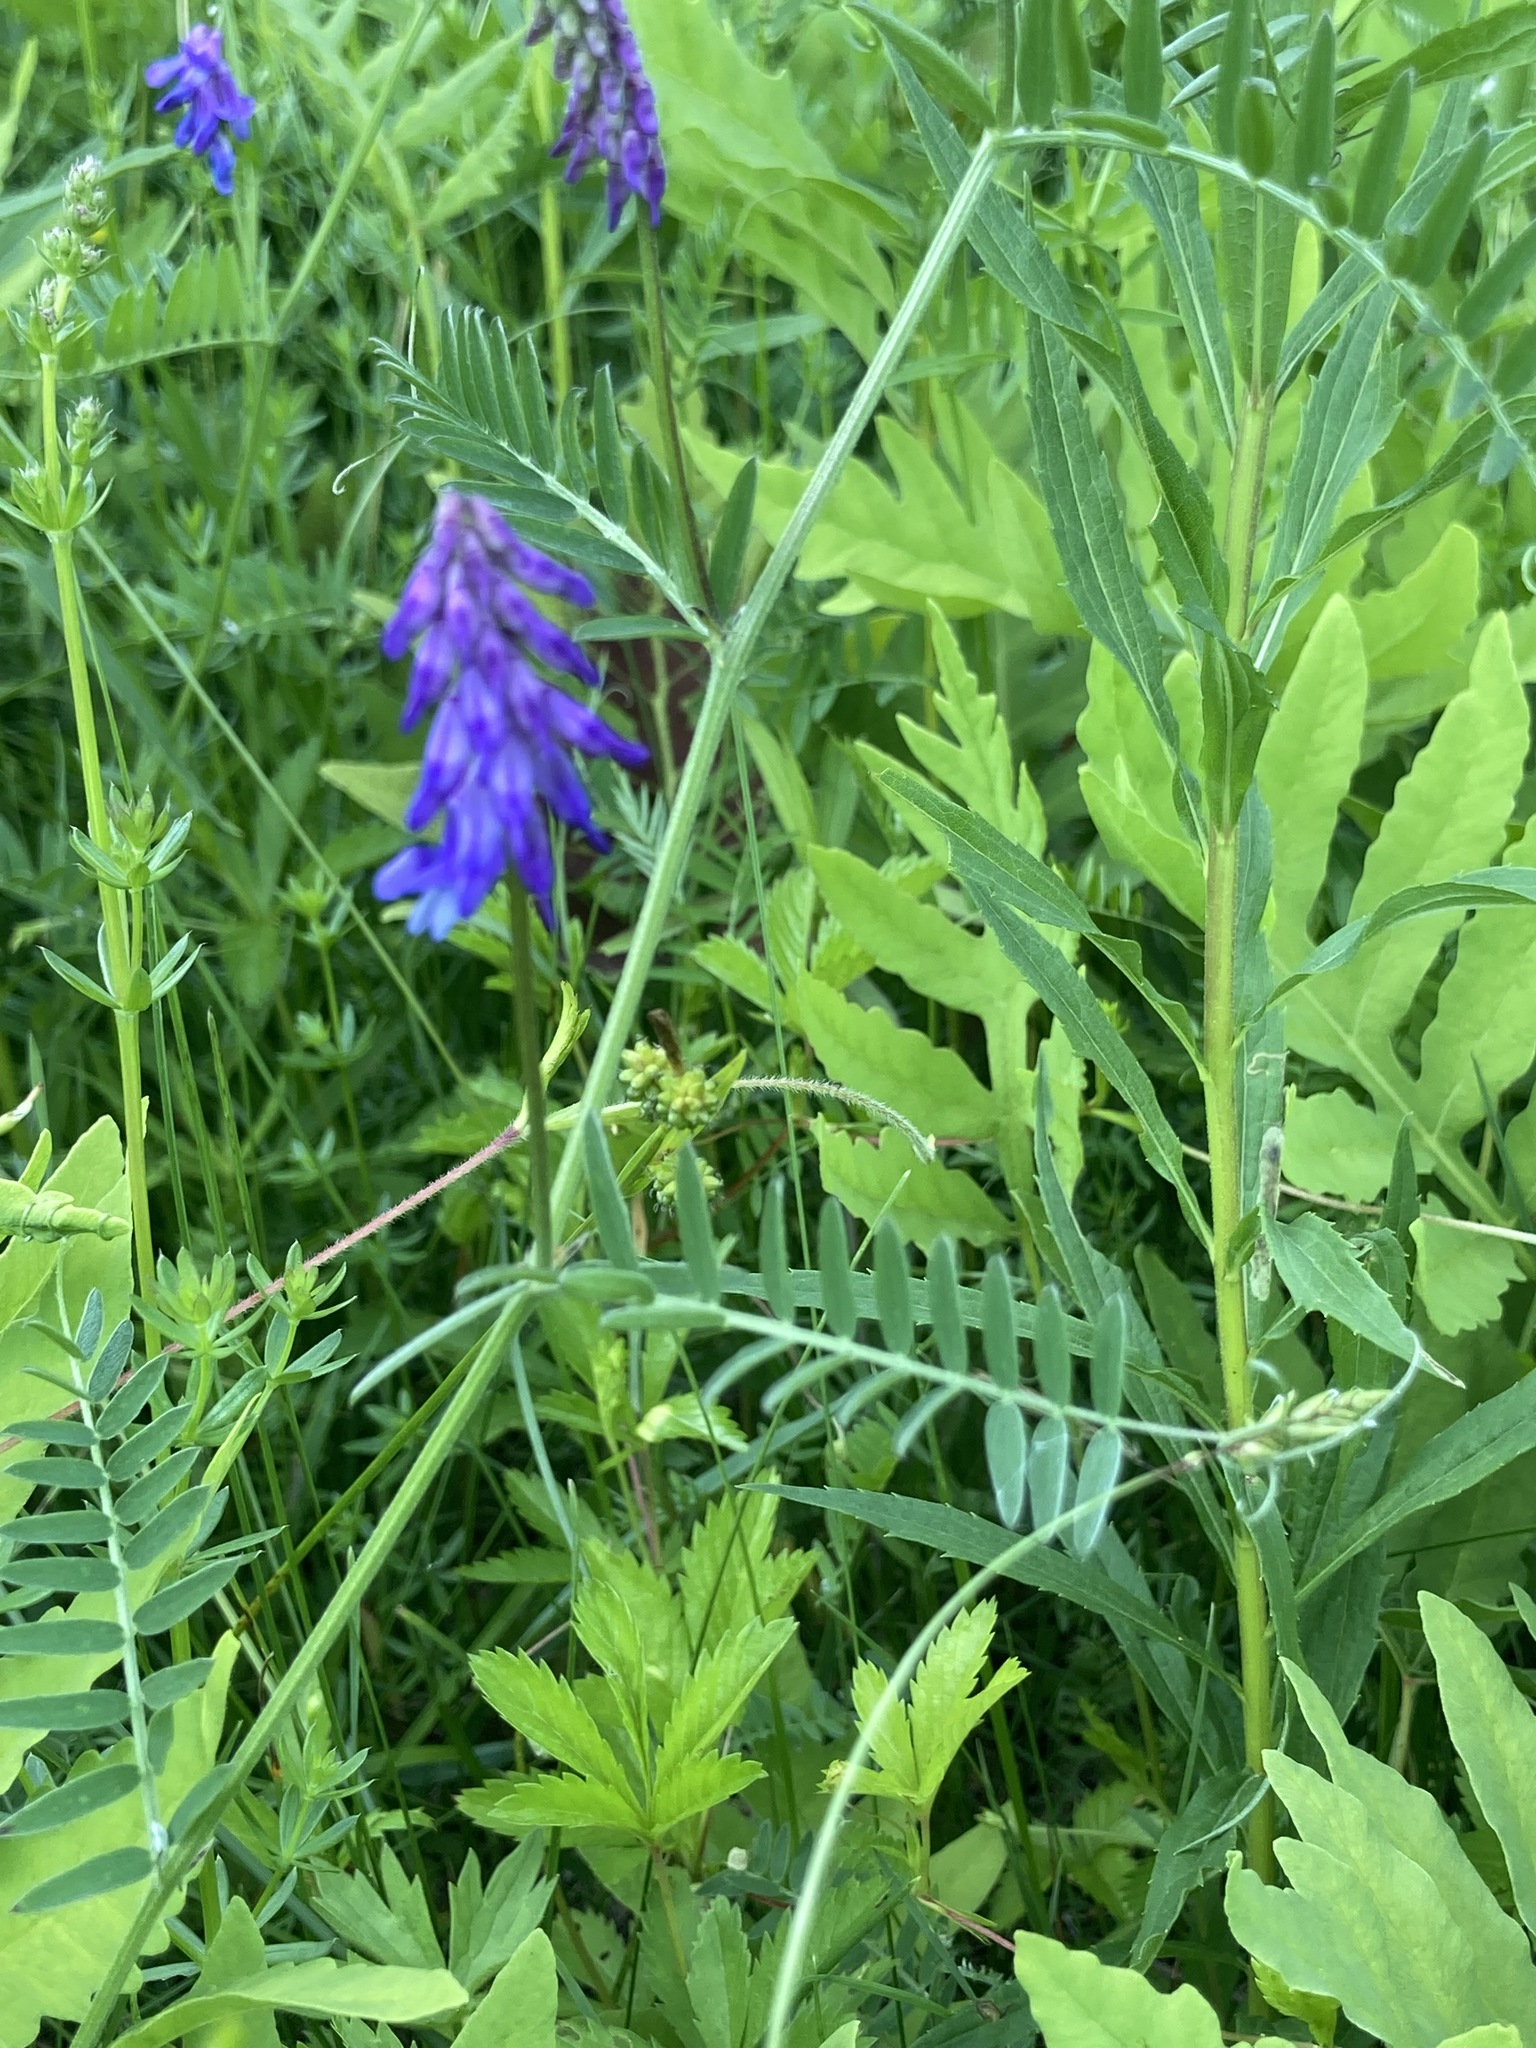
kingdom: Plantae
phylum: Tracheophyta
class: Magnoliopsida
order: Fabales
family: Fabaceae
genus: Vicia
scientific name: Vicia cracca
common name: Bird vetch
